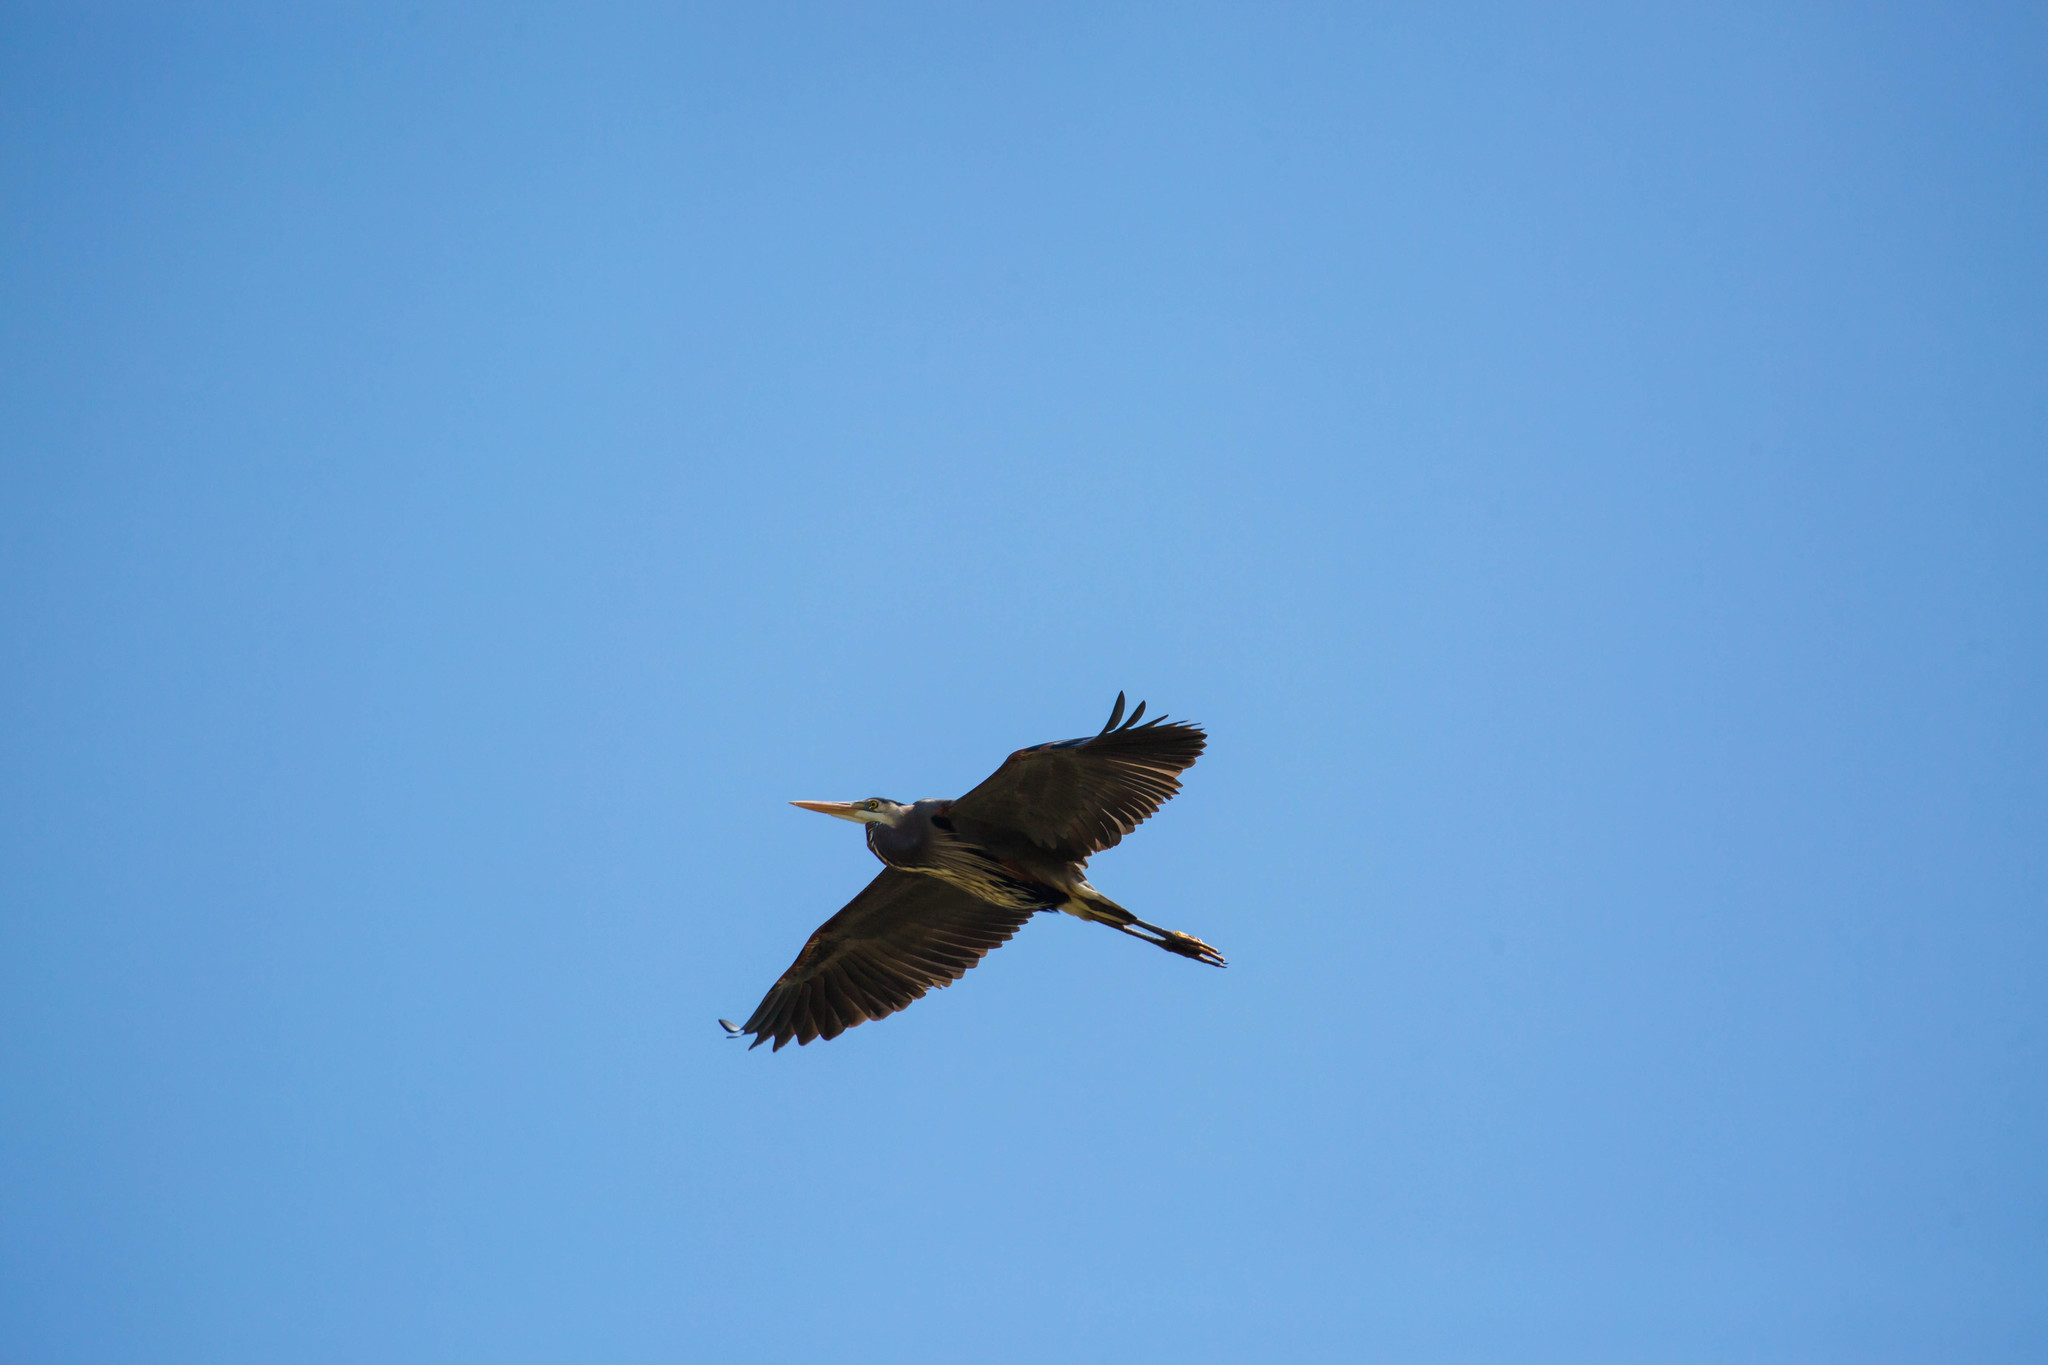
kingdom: Animalia
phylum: Chordata
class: Aves
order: Pelecaniformes
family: Ardeidae
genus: Ardea
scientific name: Ardea herodias
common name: Great blue heron
